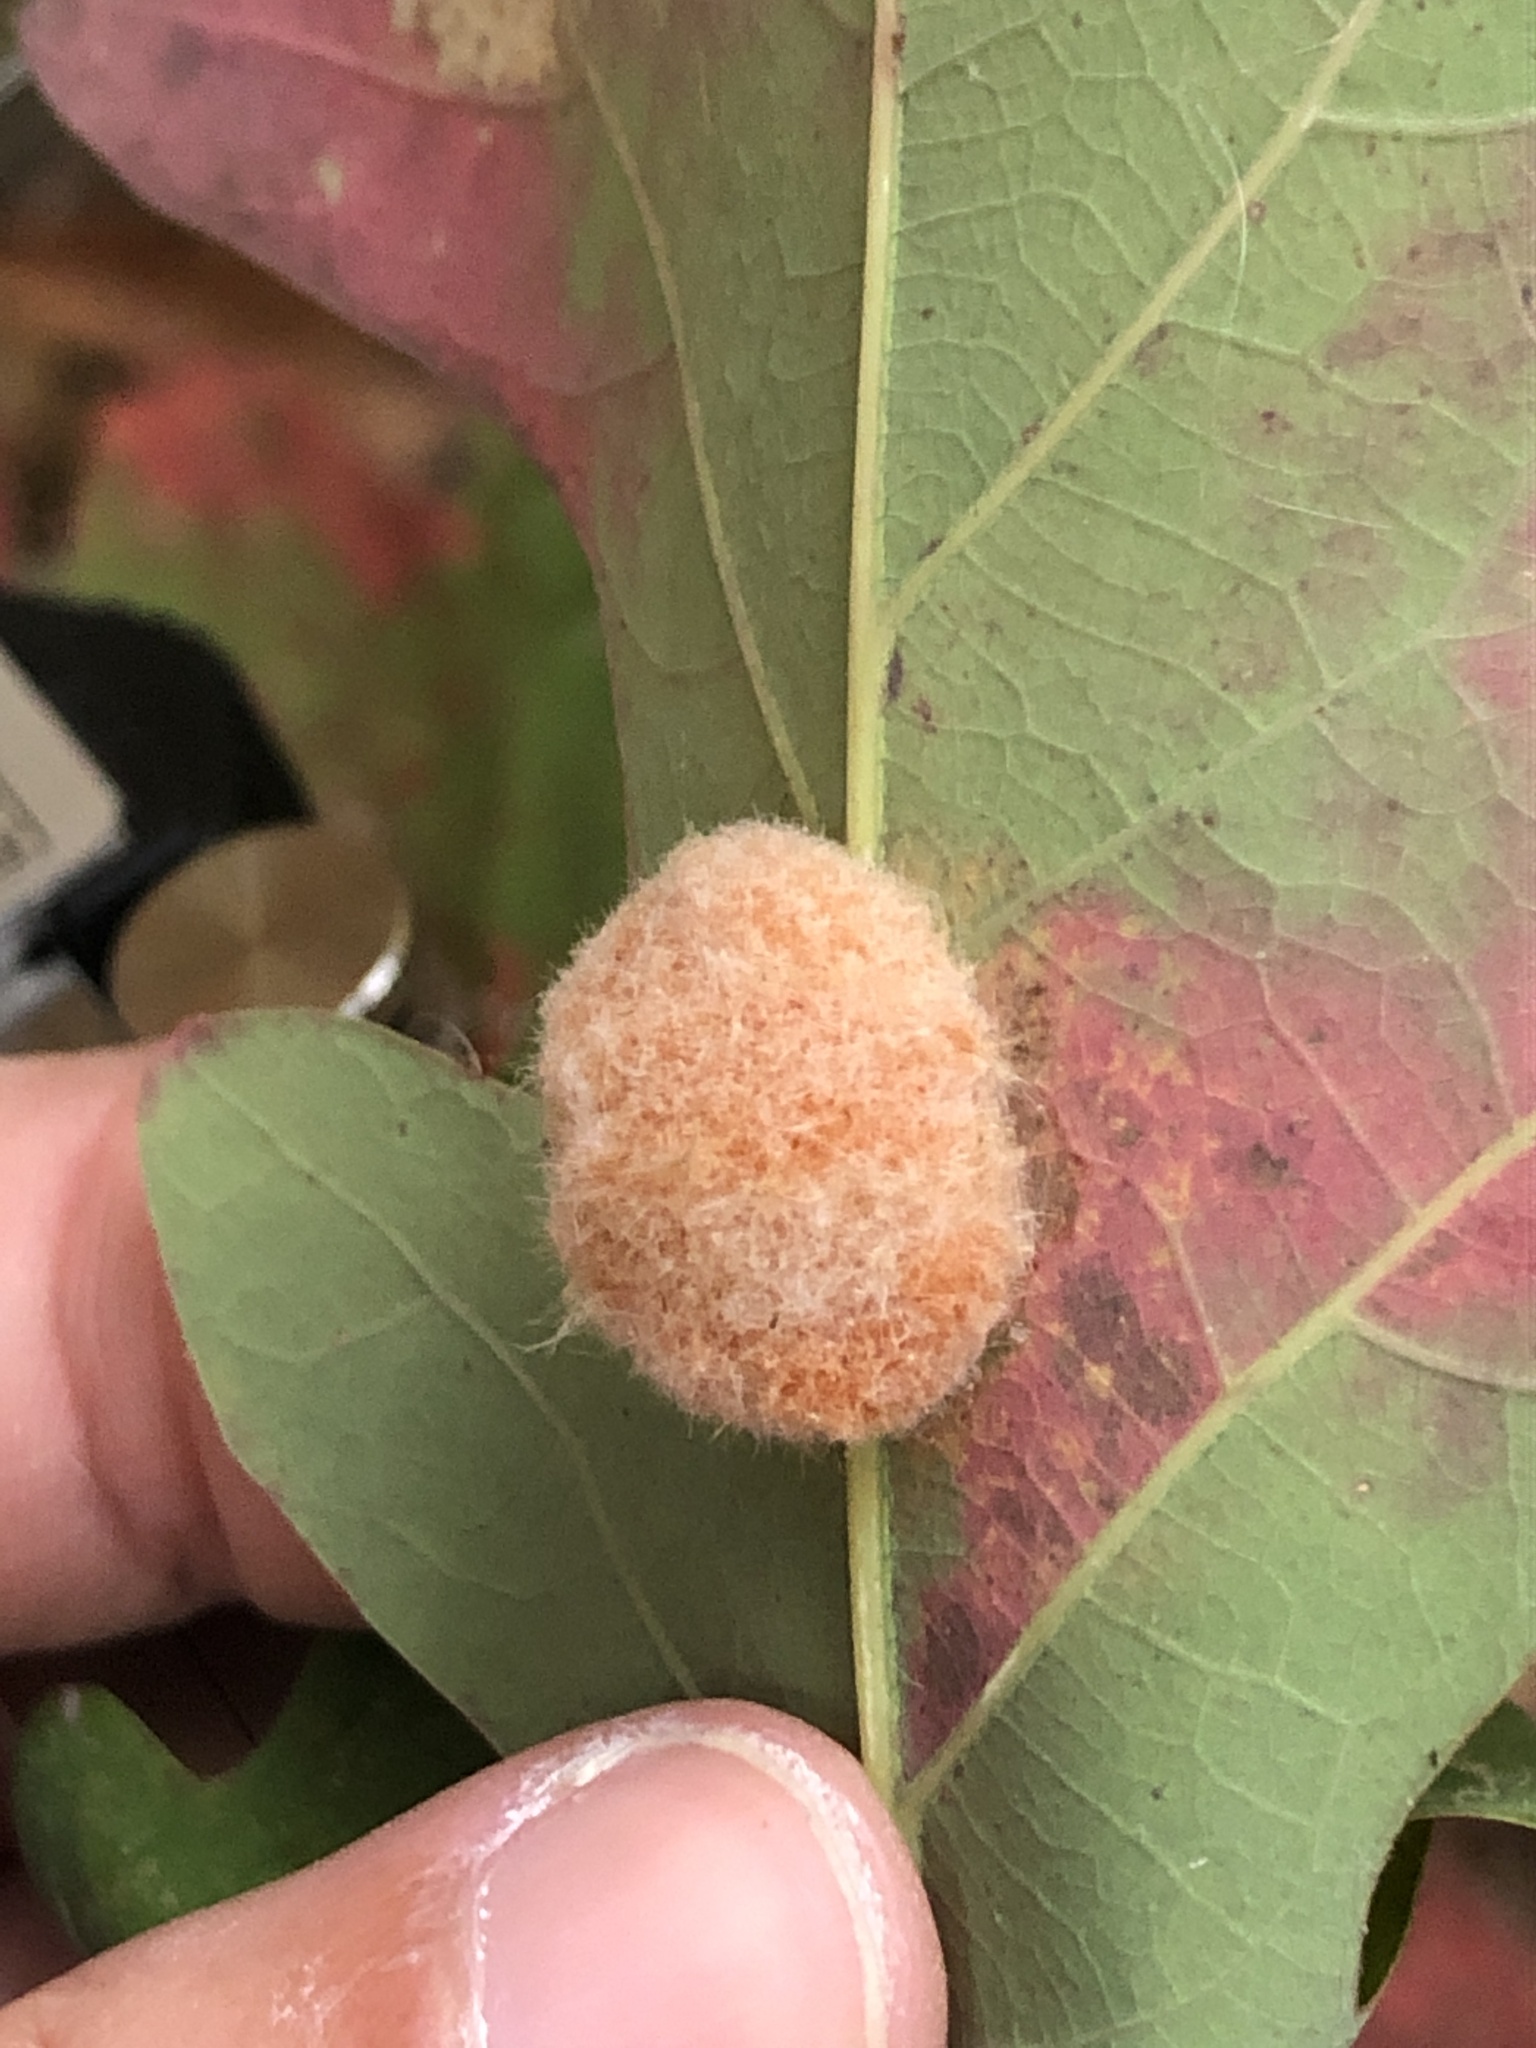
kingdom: Animalia
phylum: Arthropoda
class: Insecta
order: Hymenoptera
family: Cynipidae
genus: Andricus
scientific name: Andricus quercusflocci
